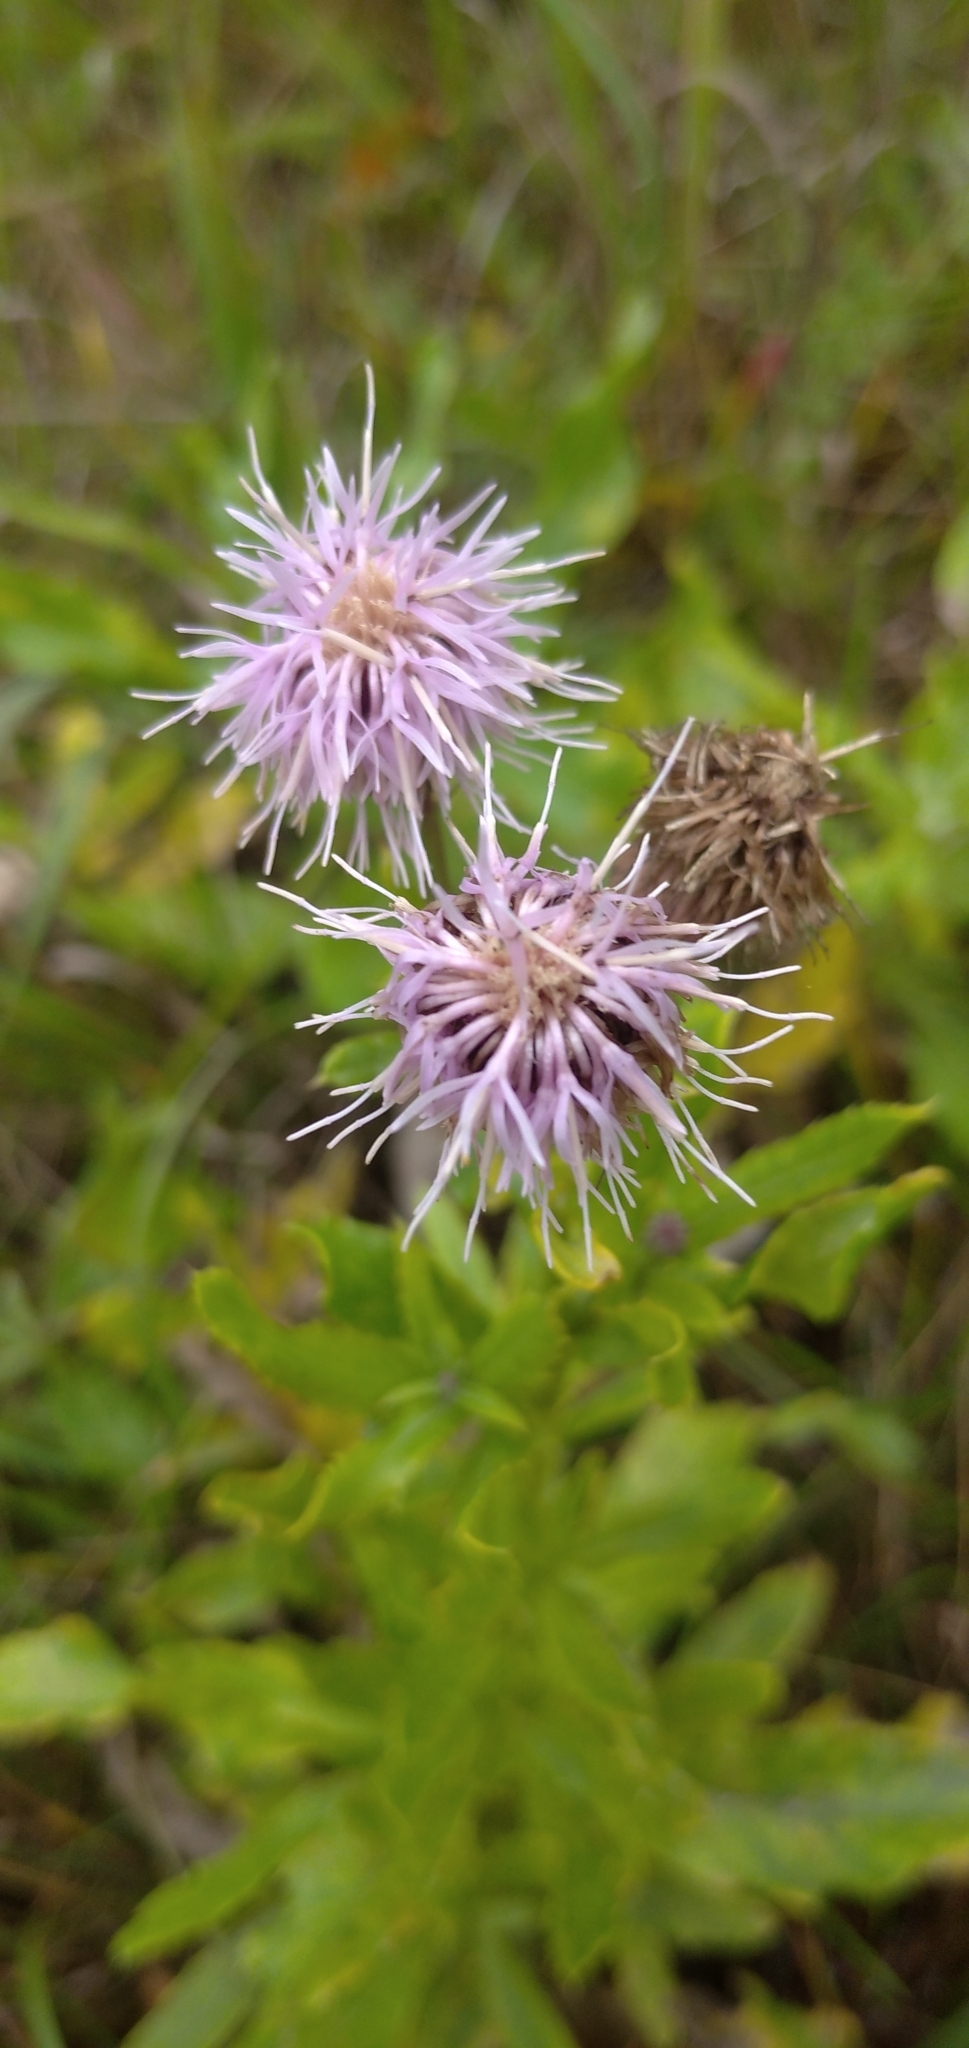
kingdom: Plantae
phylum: Tracheophyta
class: Magnoliopsida
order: Asterales
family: Asteraceae
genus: Cirsium
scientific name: Cirsium arvense
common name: Creeping thistle
